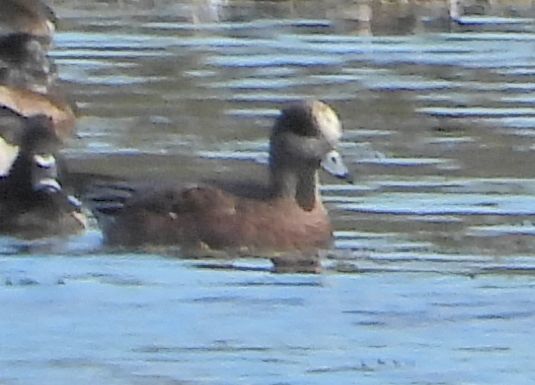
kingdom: Animalia
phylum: Chordata
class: Aves
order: Anseriformes
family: Anatidae
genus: Mareca
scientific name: Mareca americana
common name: American wigeon
